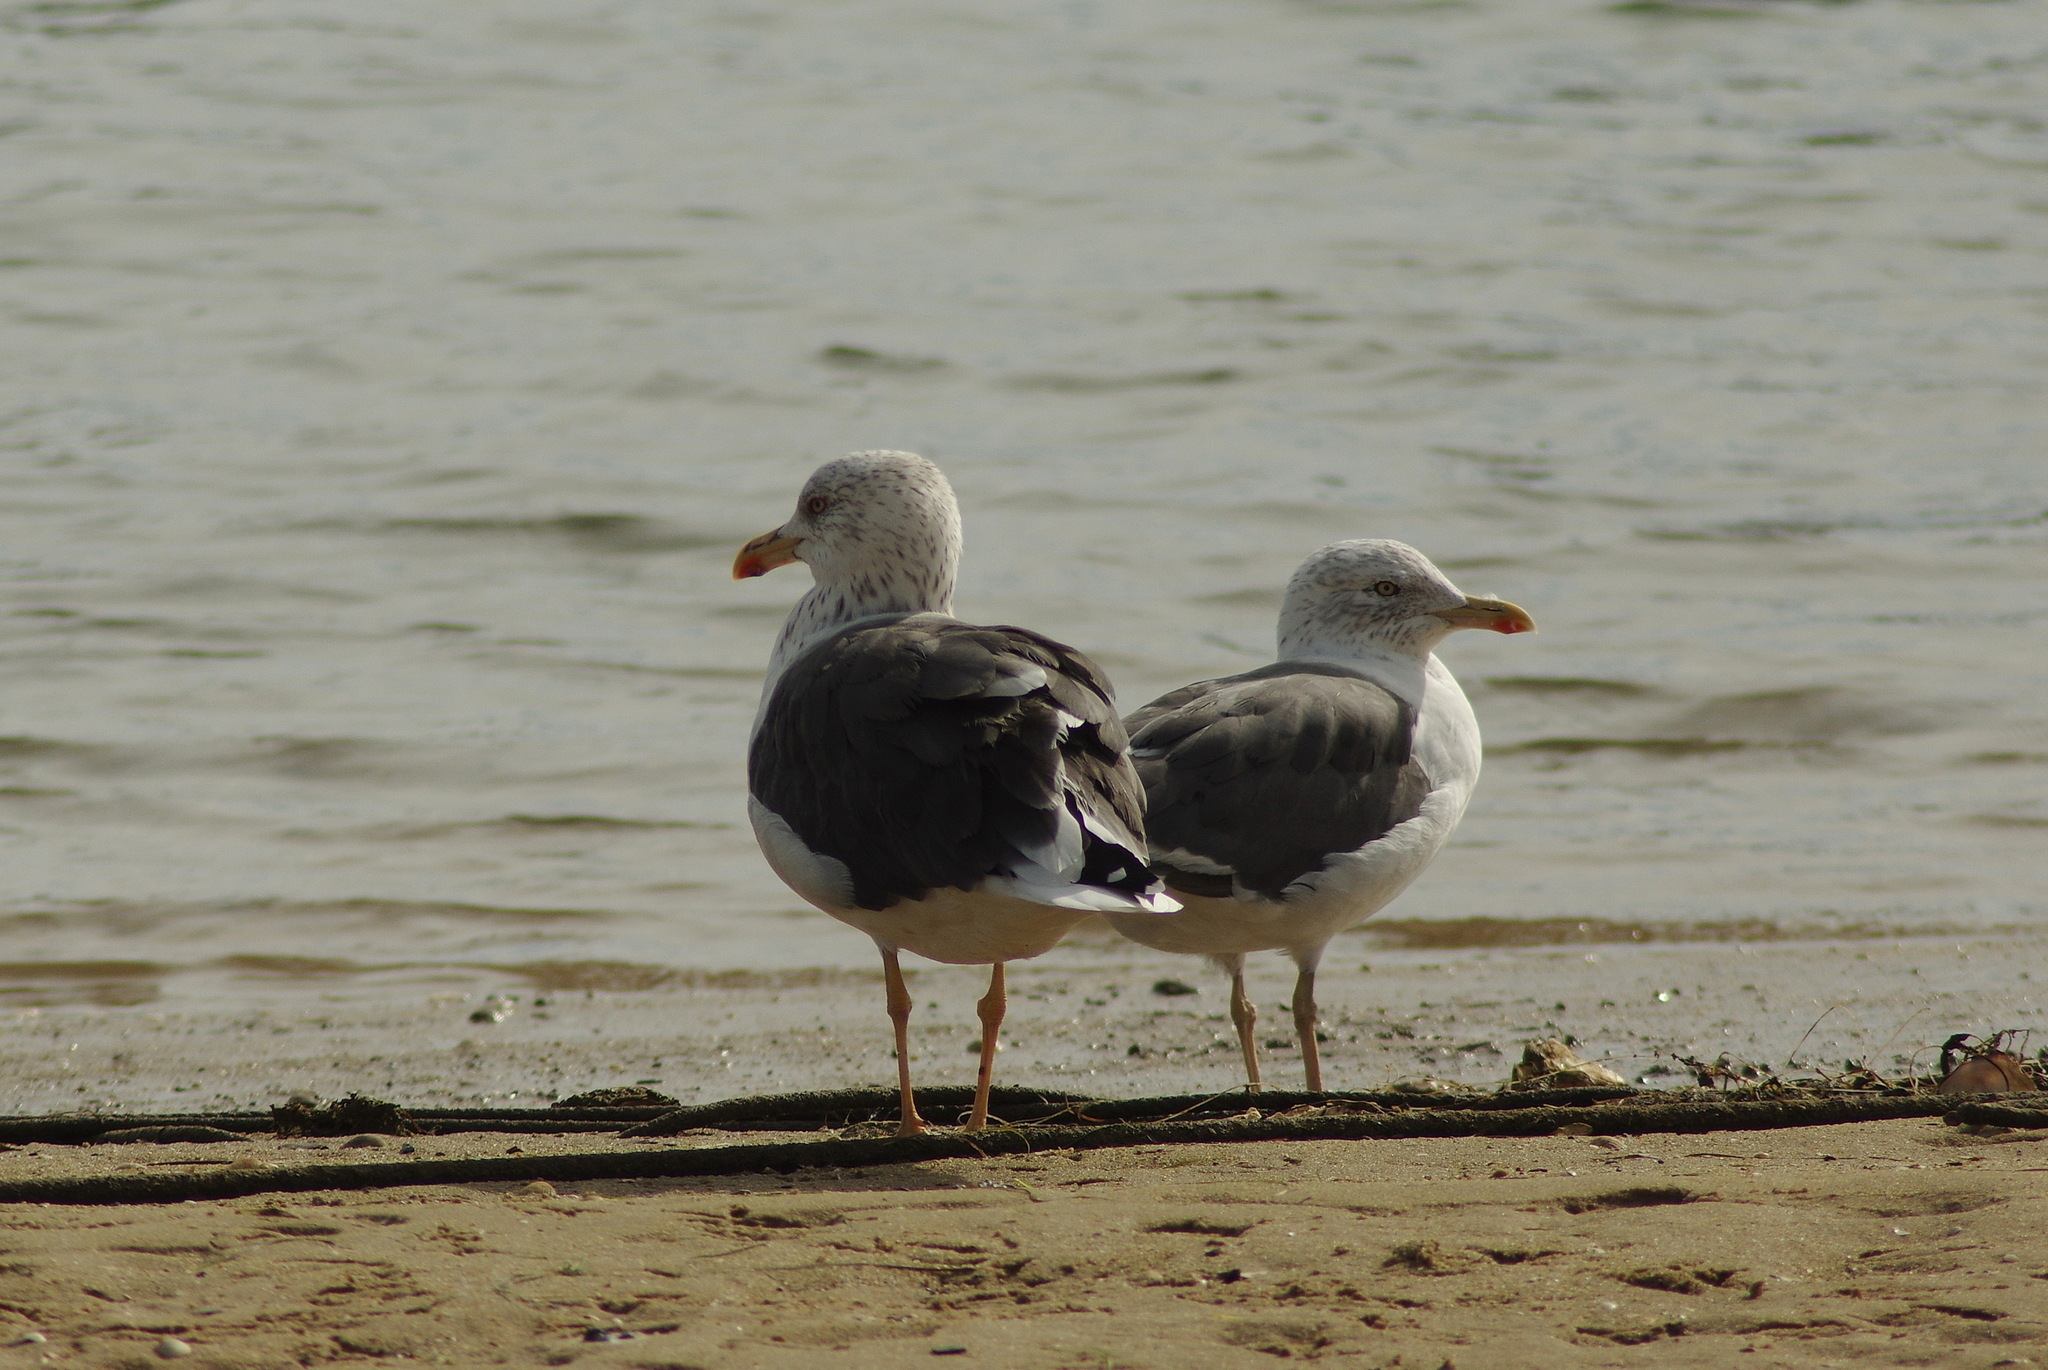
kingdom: Animalia
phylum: Chordata
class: Aves
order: Charadriiformes
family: Laridae
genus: Larus
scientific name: Larus fuscus
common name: Lesser black-backed gull
